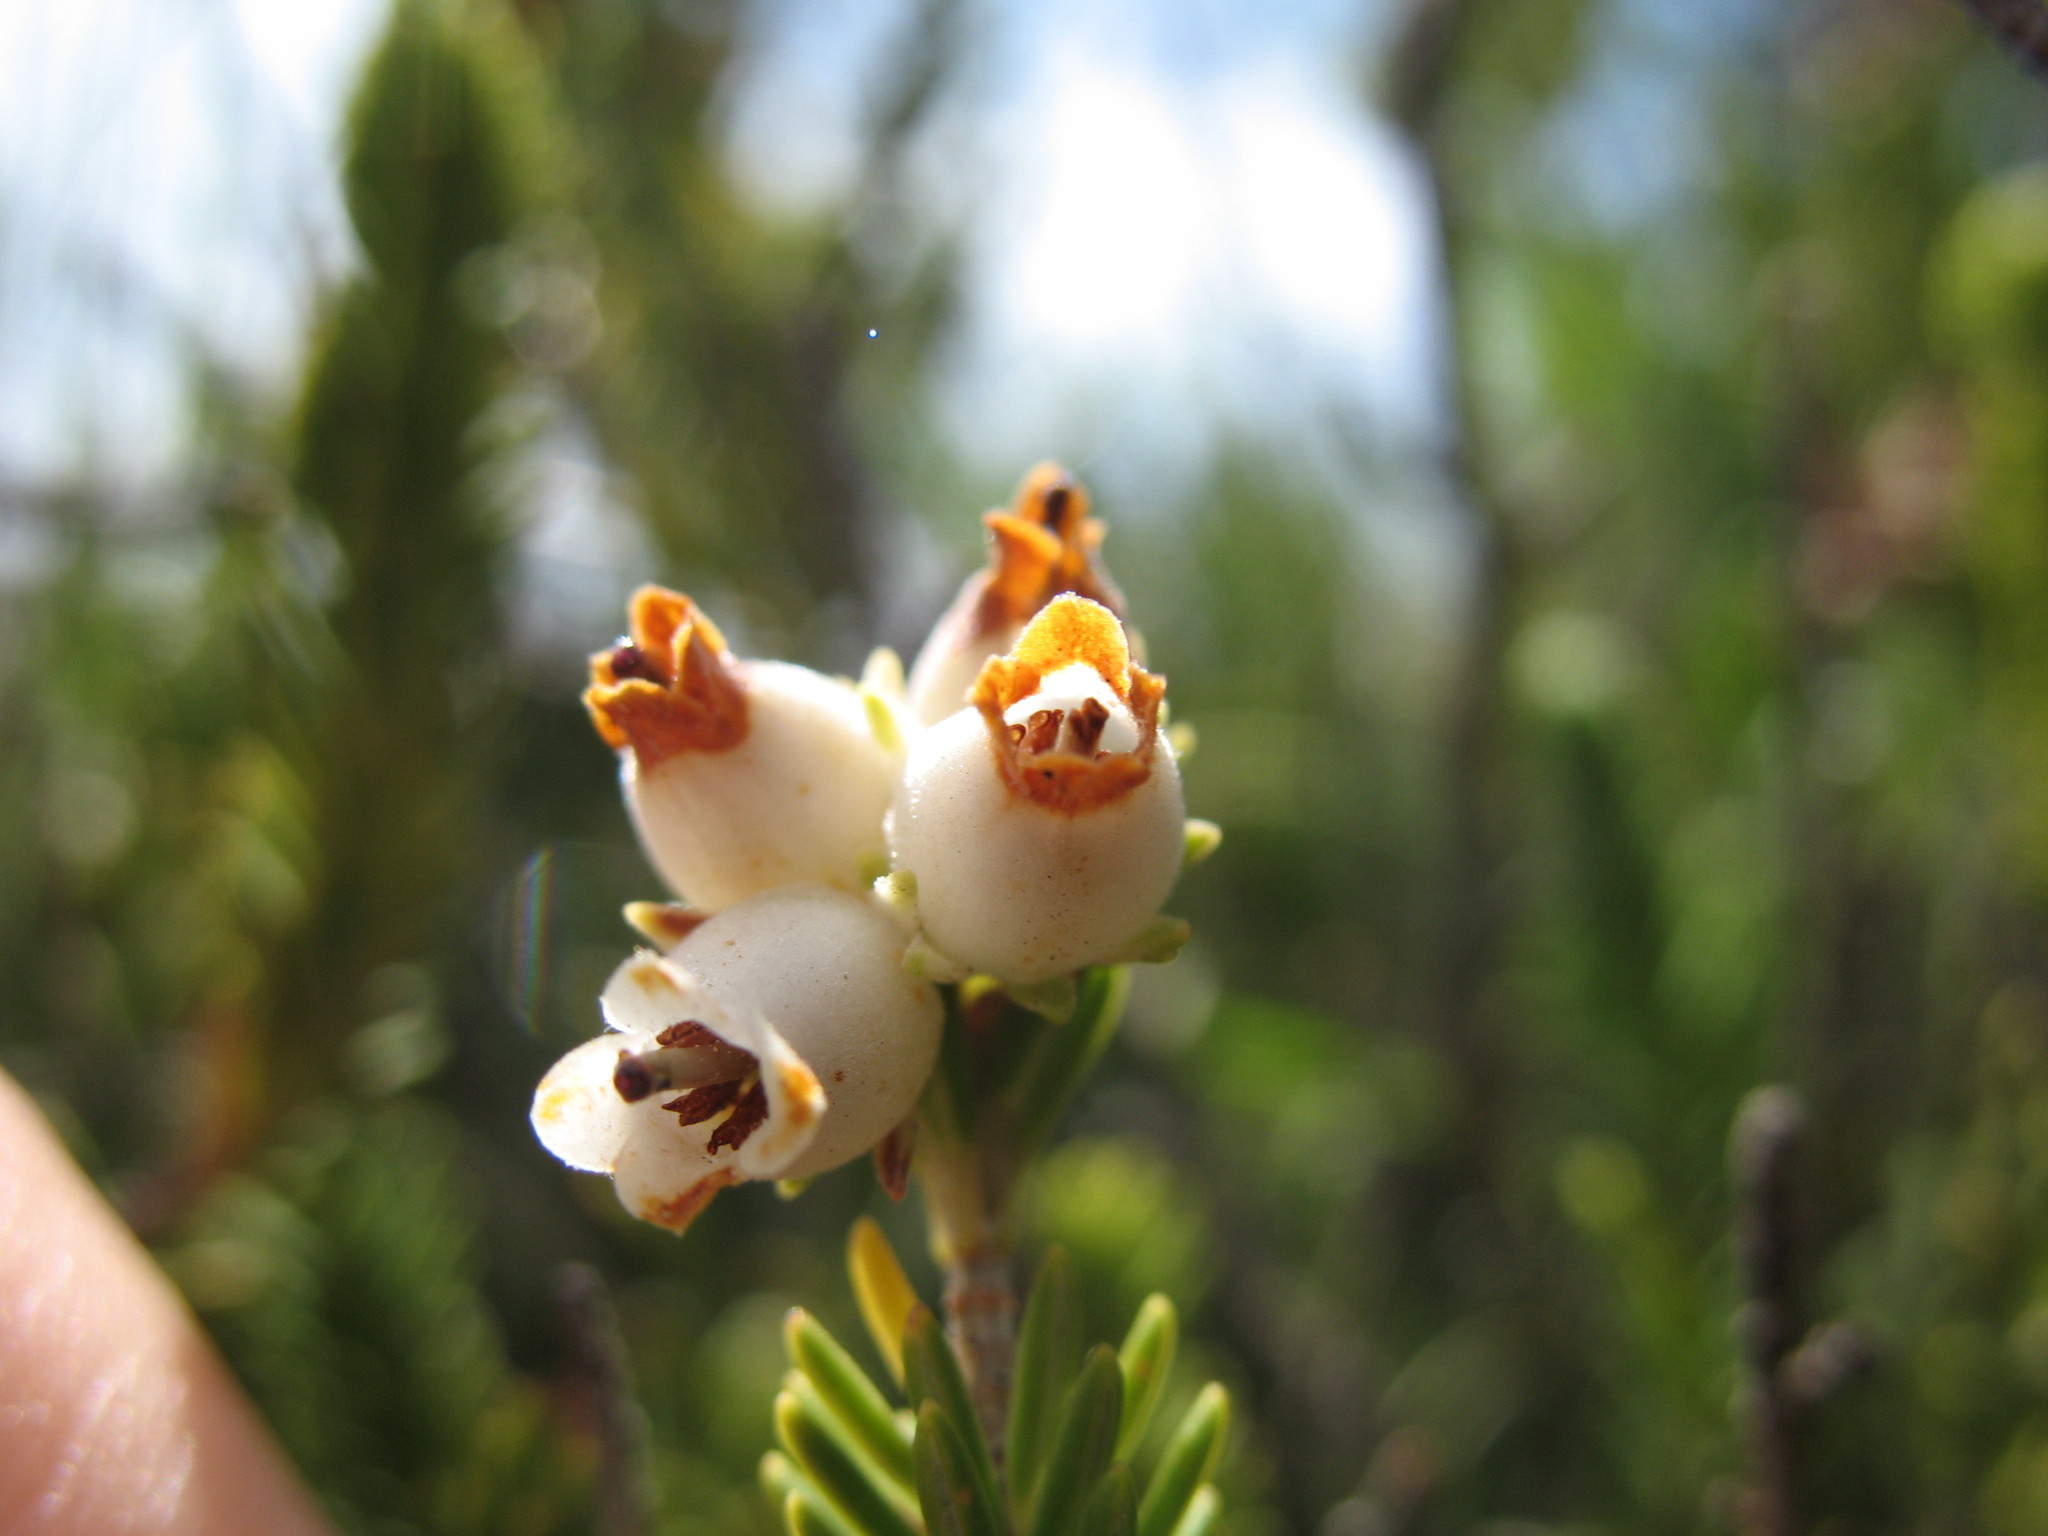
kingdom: Plantae
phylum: Tracheophyta
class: Magnoliopsida
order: Ericales
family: Ericaceae
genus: Erica
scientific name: Erica flanaganii
